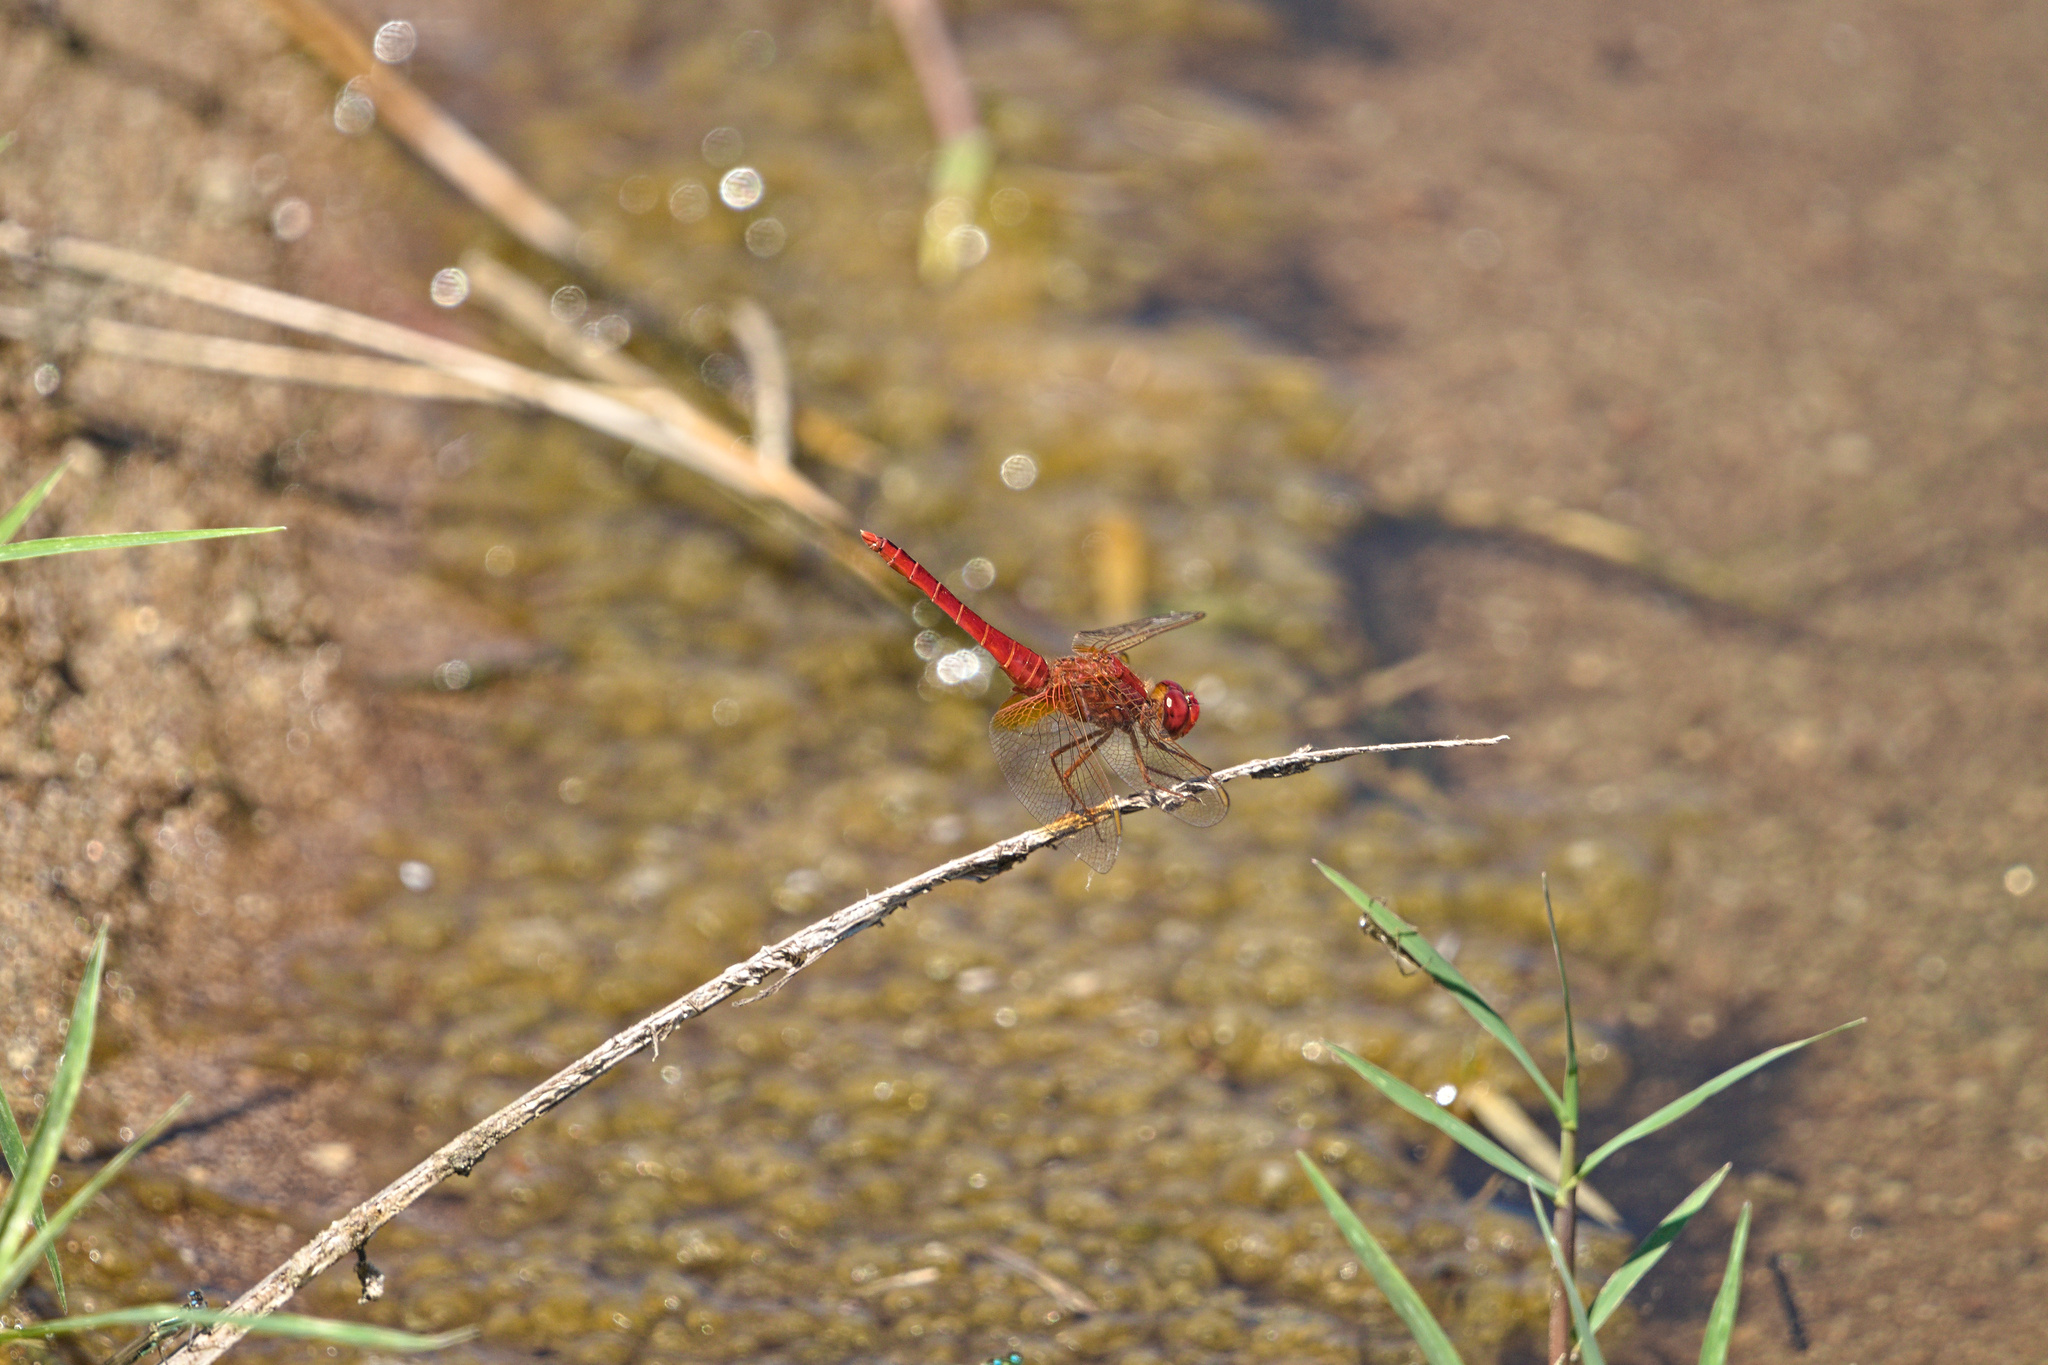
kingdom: Animalia
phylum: Arthropoda
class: Insecta
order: Odonata
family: Libellulidae
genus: Crocothemis
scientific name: Crocothemis erythraea
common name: Scarlet dragonfly
